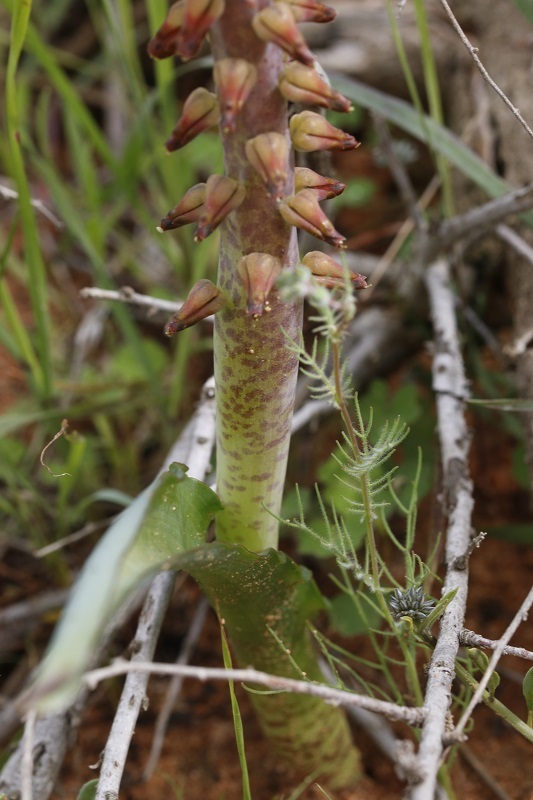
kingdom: Plantae
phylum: Tracheophyta
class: Liliopsida
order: Asparagales
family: Asparagaceae
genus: Lachenalia
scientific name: Lachenalia mutabilis
